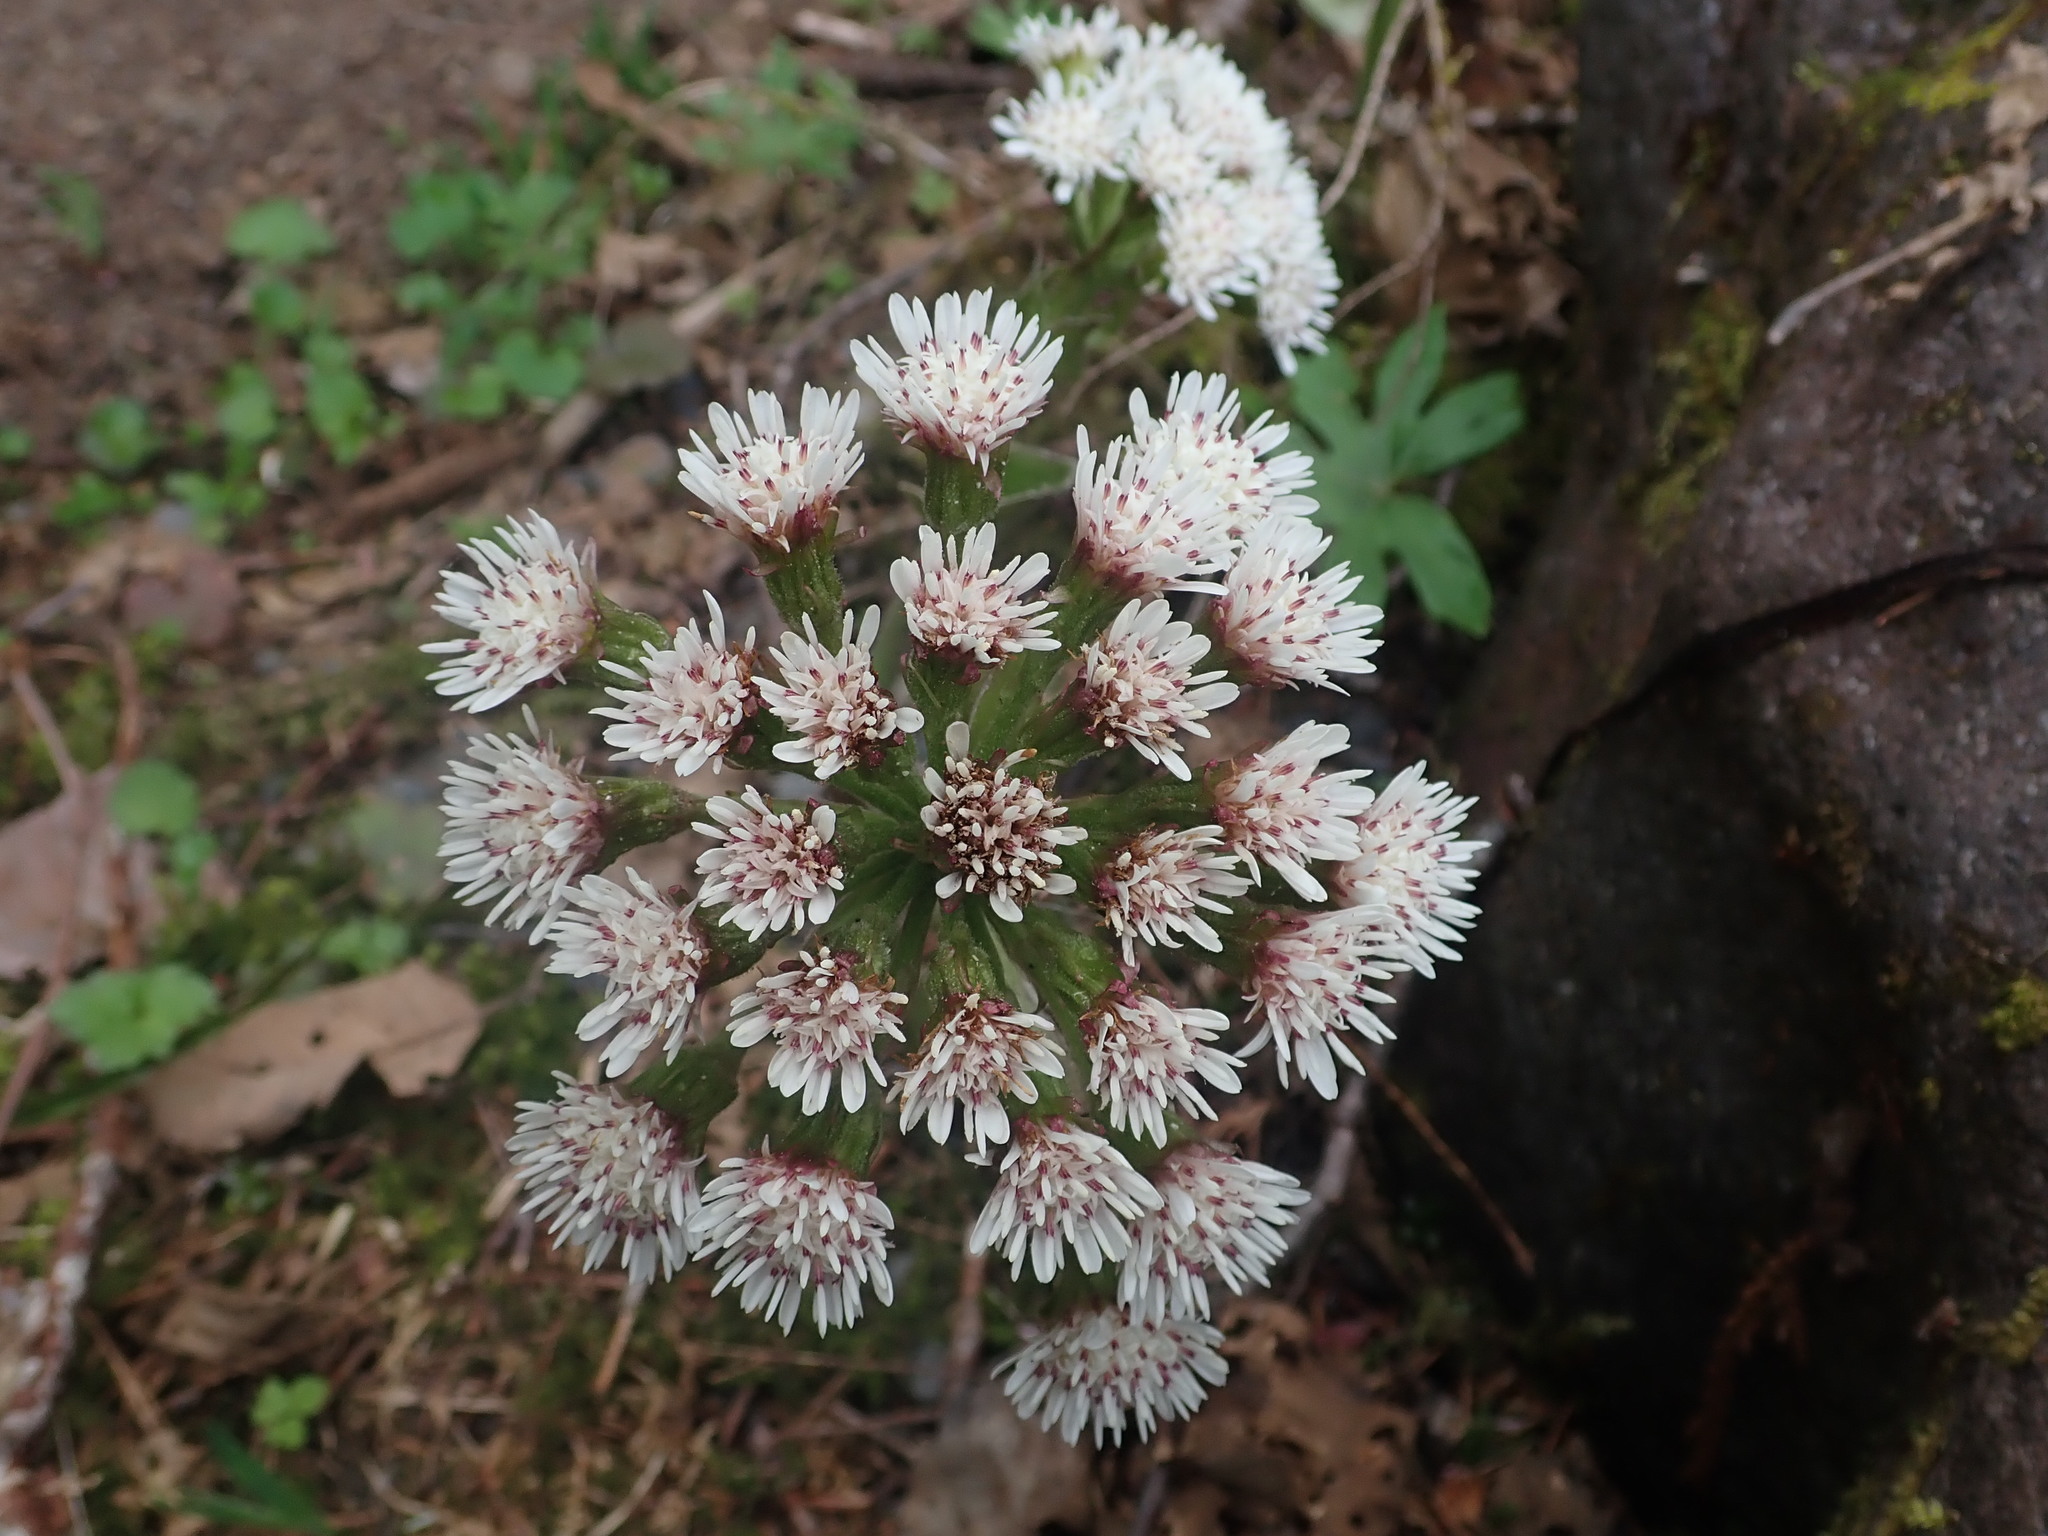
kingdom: Plantae
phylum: Tracheophyta
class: Magnoliopsida
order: Asterales
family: Asteraceae
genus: Petasites
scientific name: Petasites frigidus
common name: Arctic butterbur
